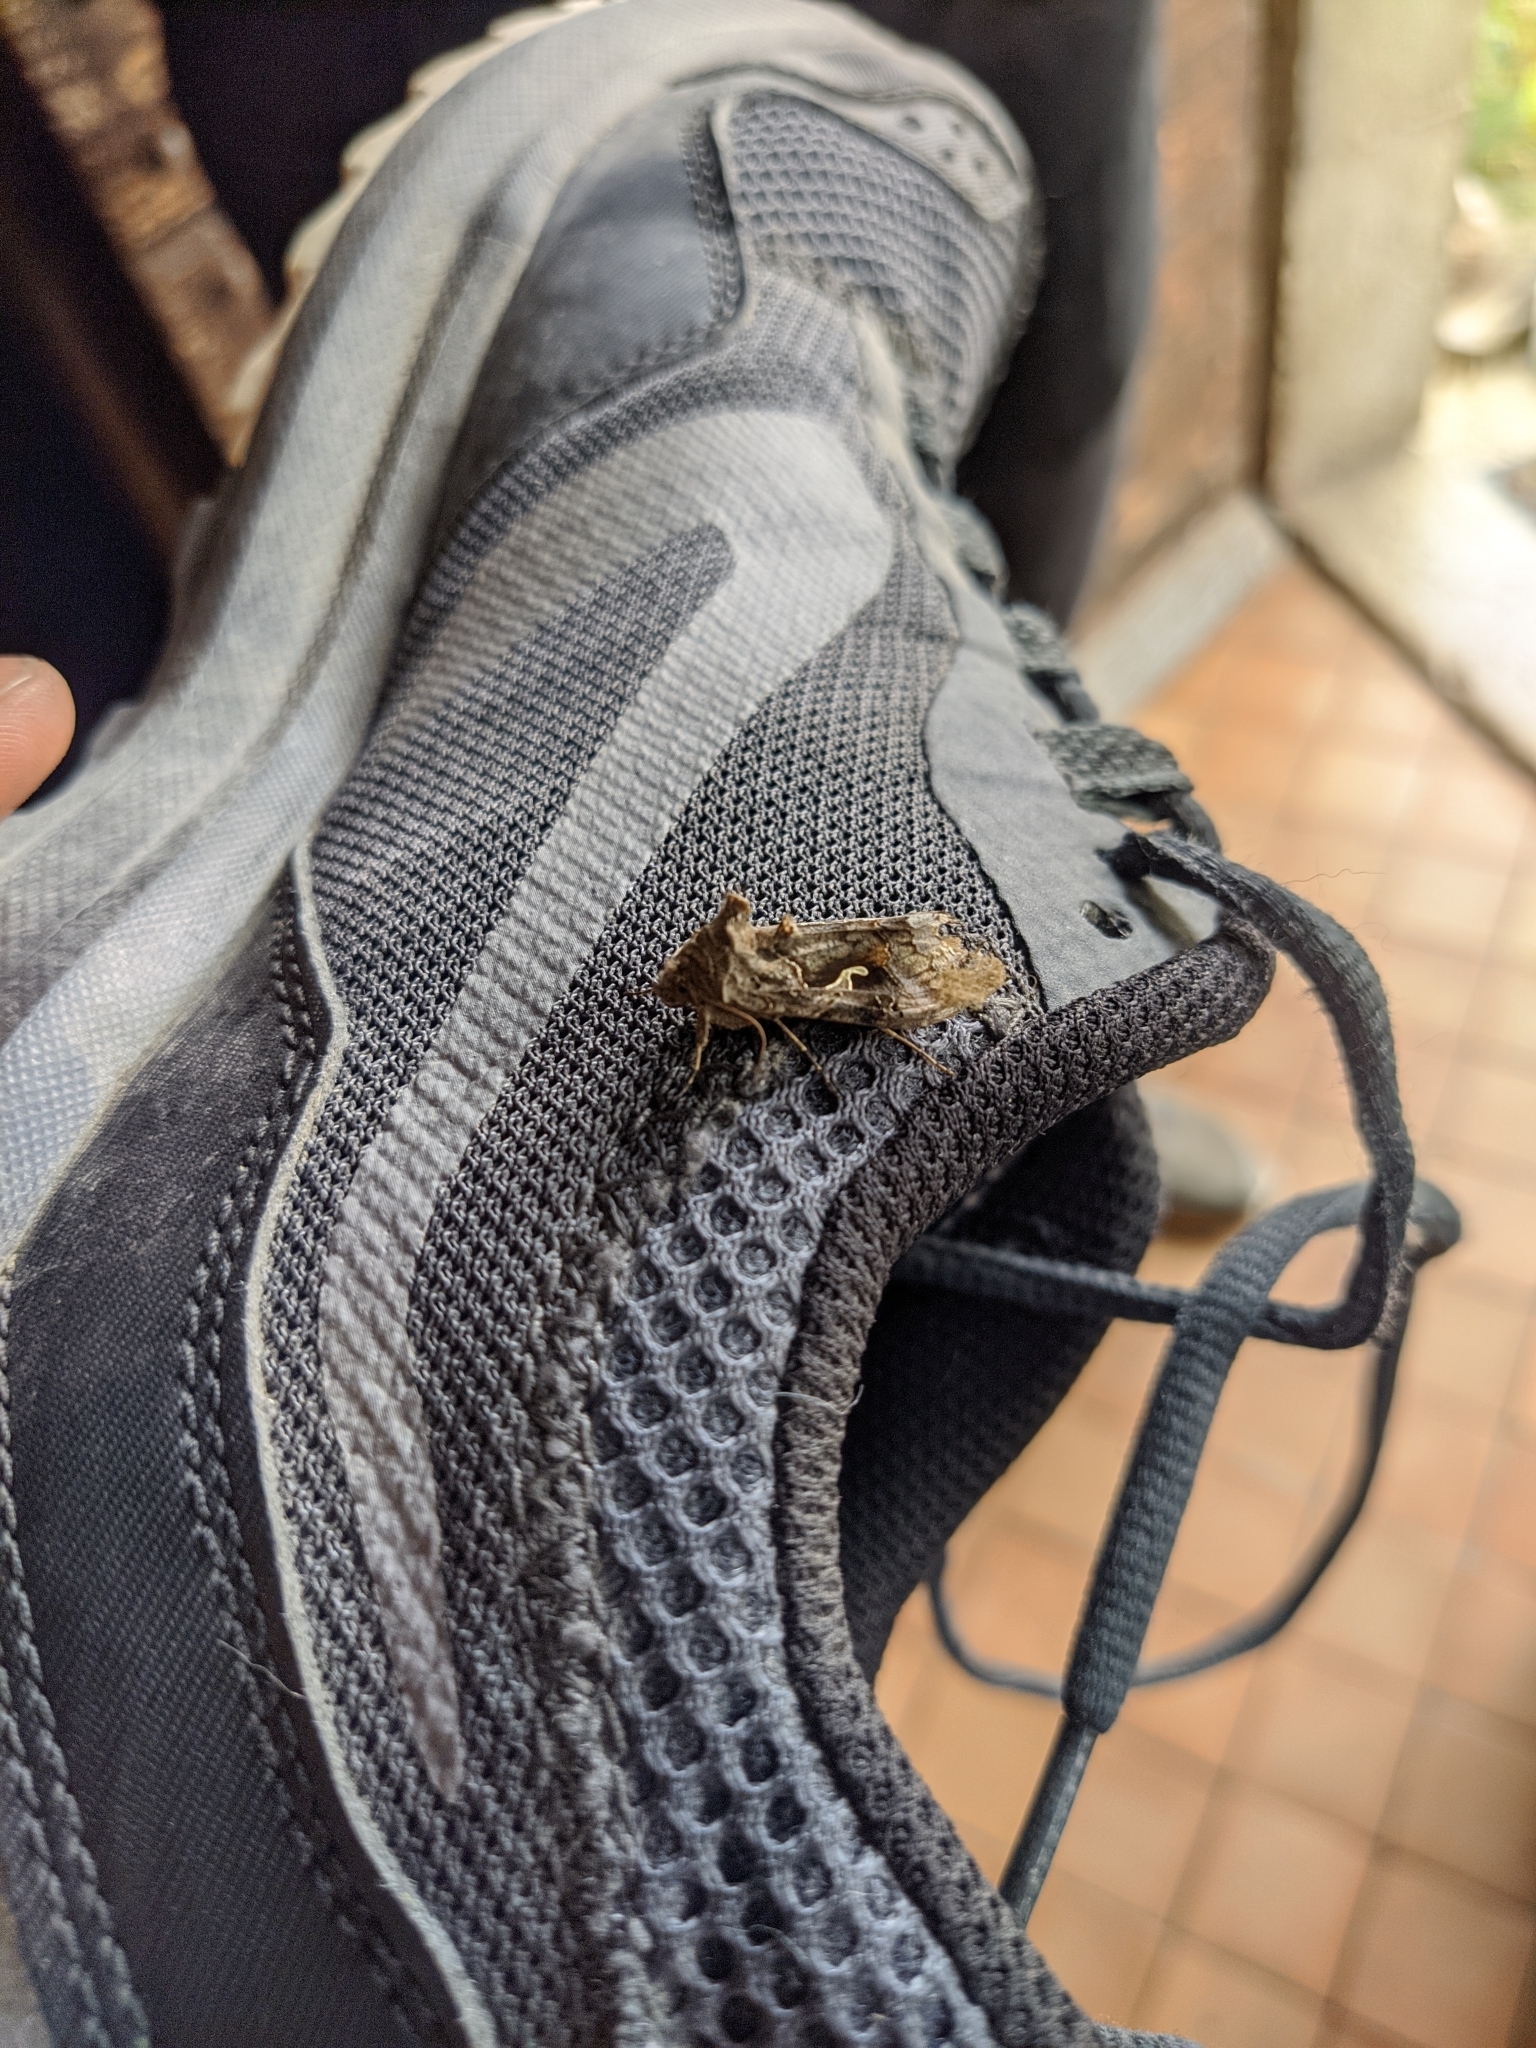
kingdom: Animalia
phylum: Arthropoda
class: Insecta
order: Lepidoptera
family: Noctuidae
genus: Autographa
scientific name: Autographa gamma
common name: Silver y
